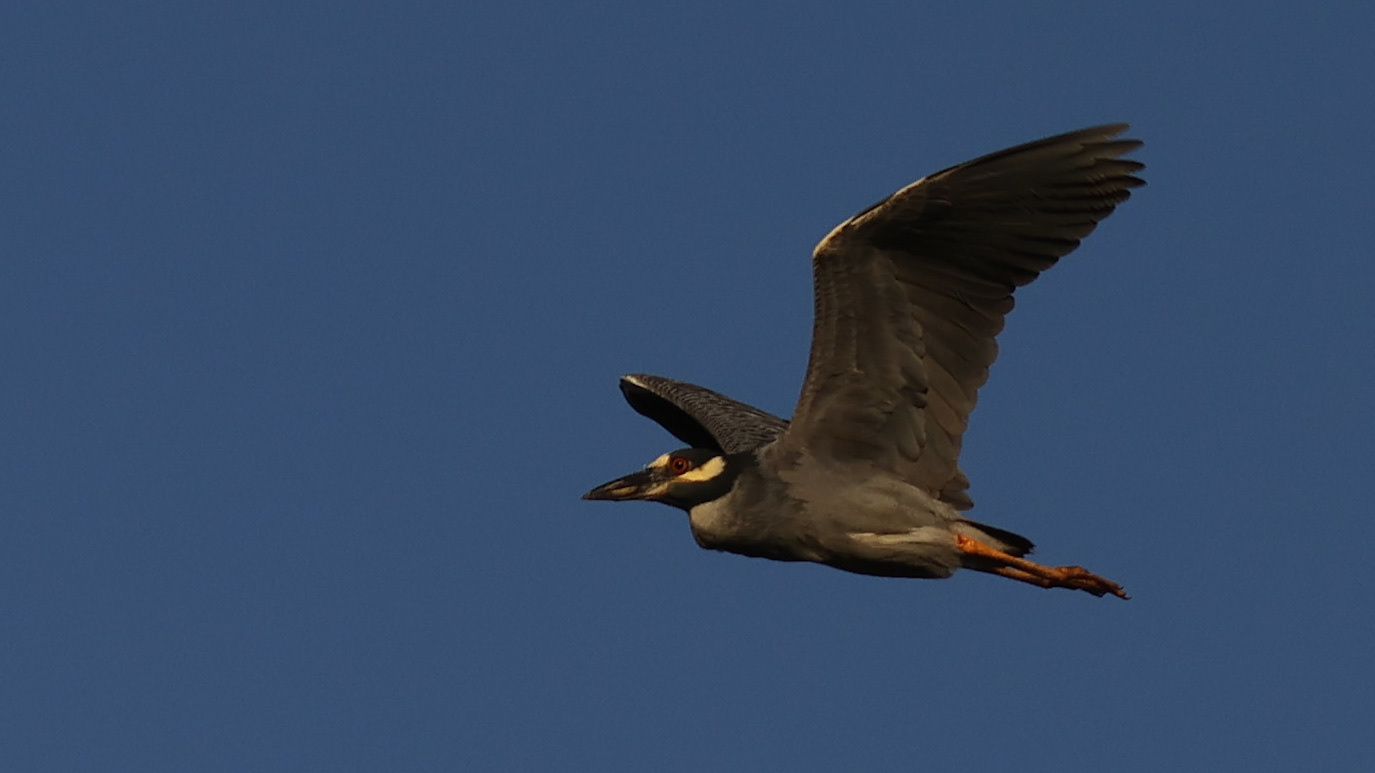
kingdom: Animalia
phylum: Chordata
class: Aves
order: Pelecaniformes
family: Ardeidae
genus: Nyctanassa
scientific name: Nyctanassa violacea
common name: Yellow-crowned night heron
